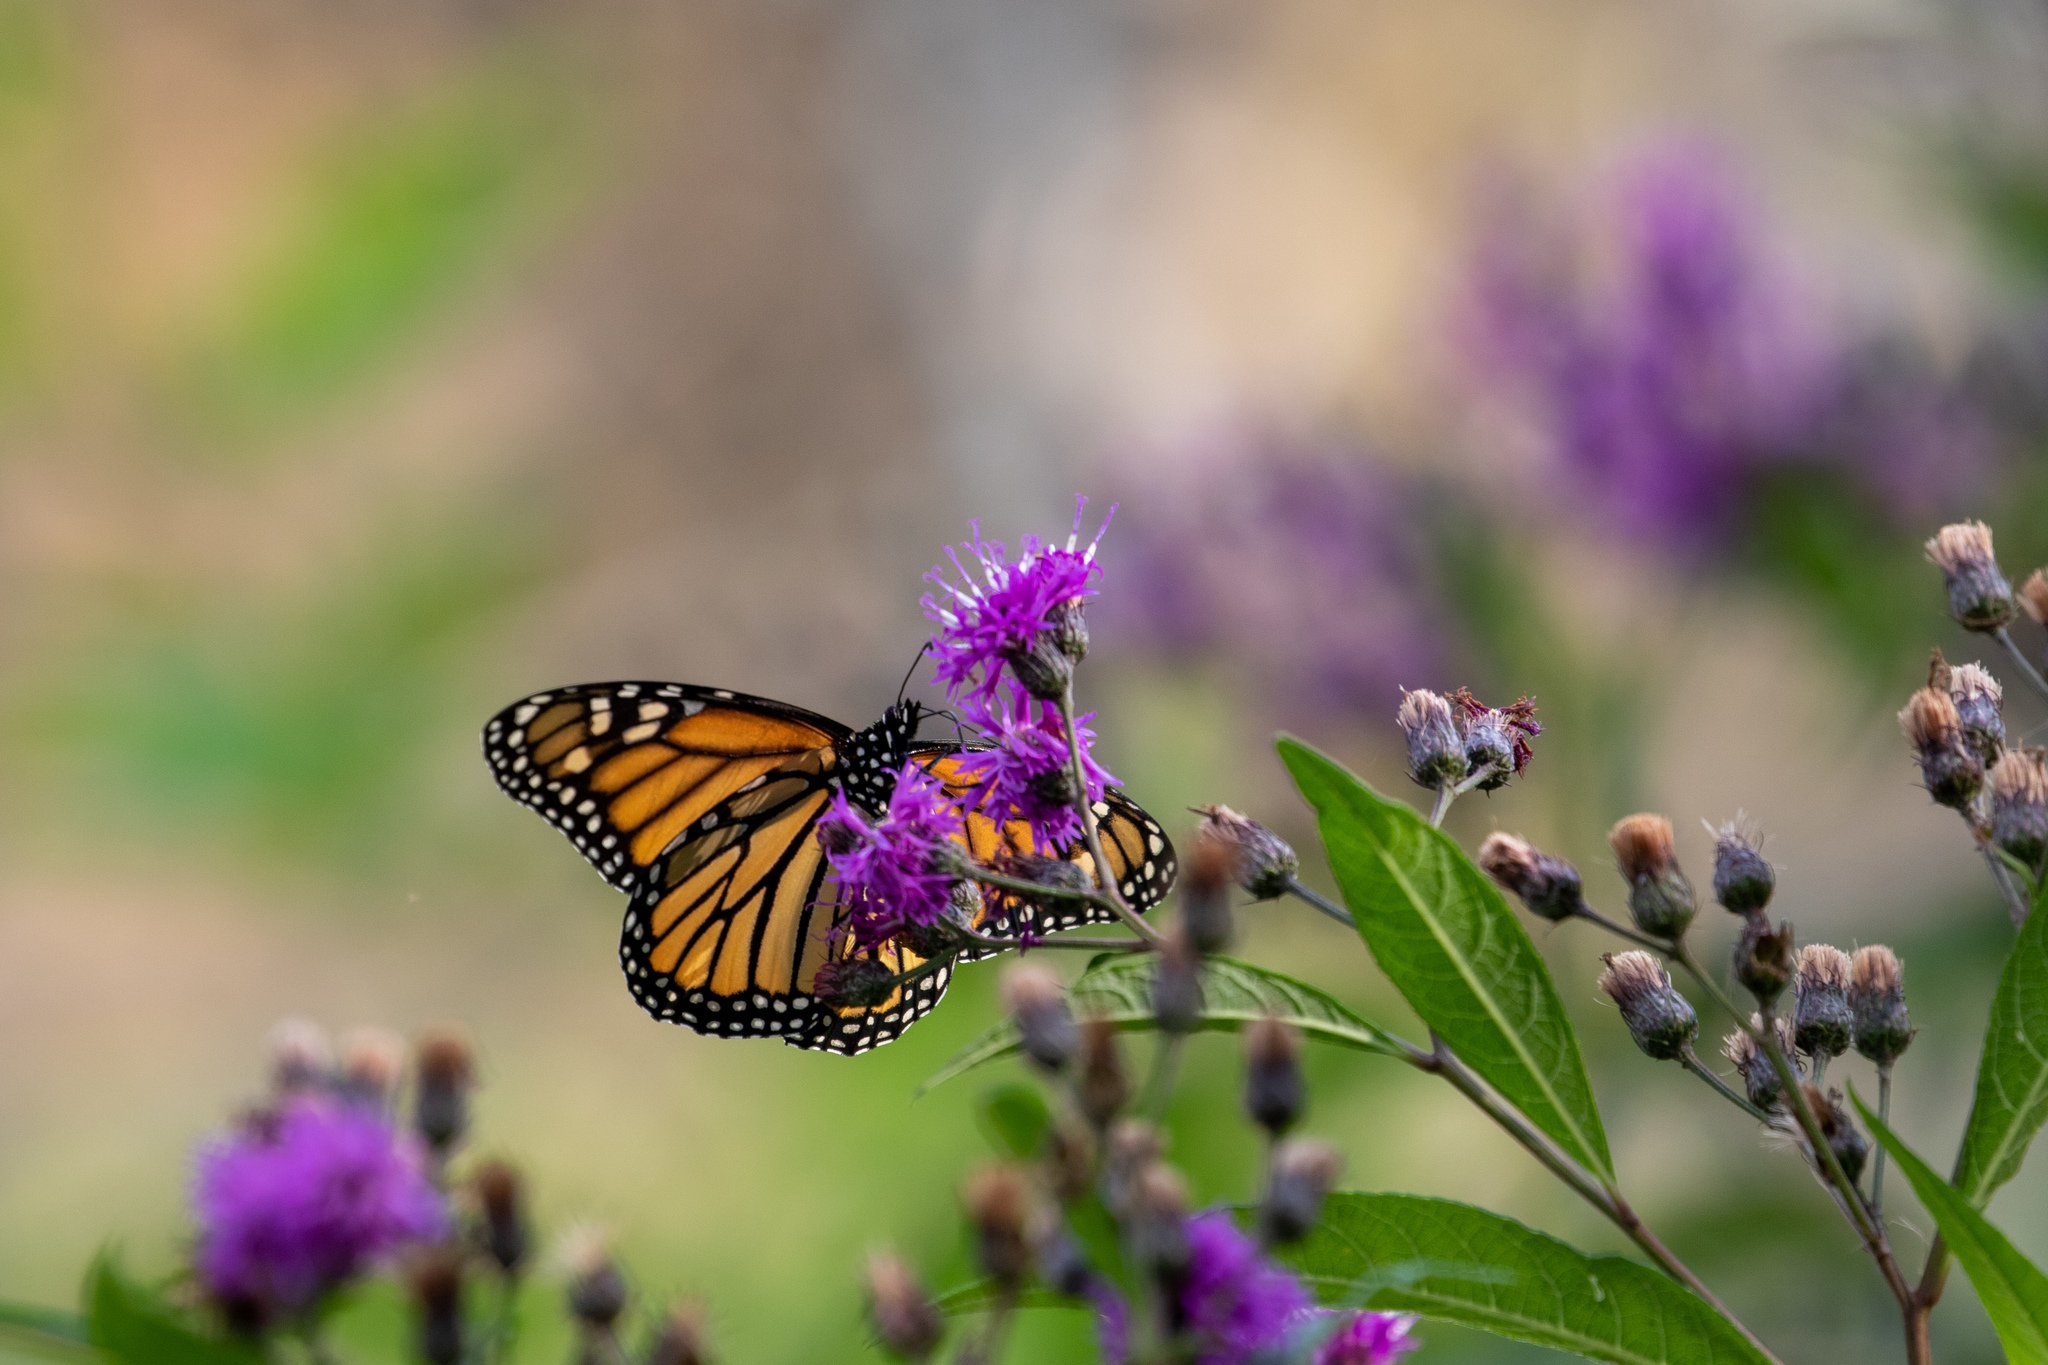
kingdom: Animalia
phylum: Arthropoda
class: Insecta
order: Lepidoptera
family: Nymphalidae
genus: Danaus
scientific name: Danaus plexippus
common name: Monarch
